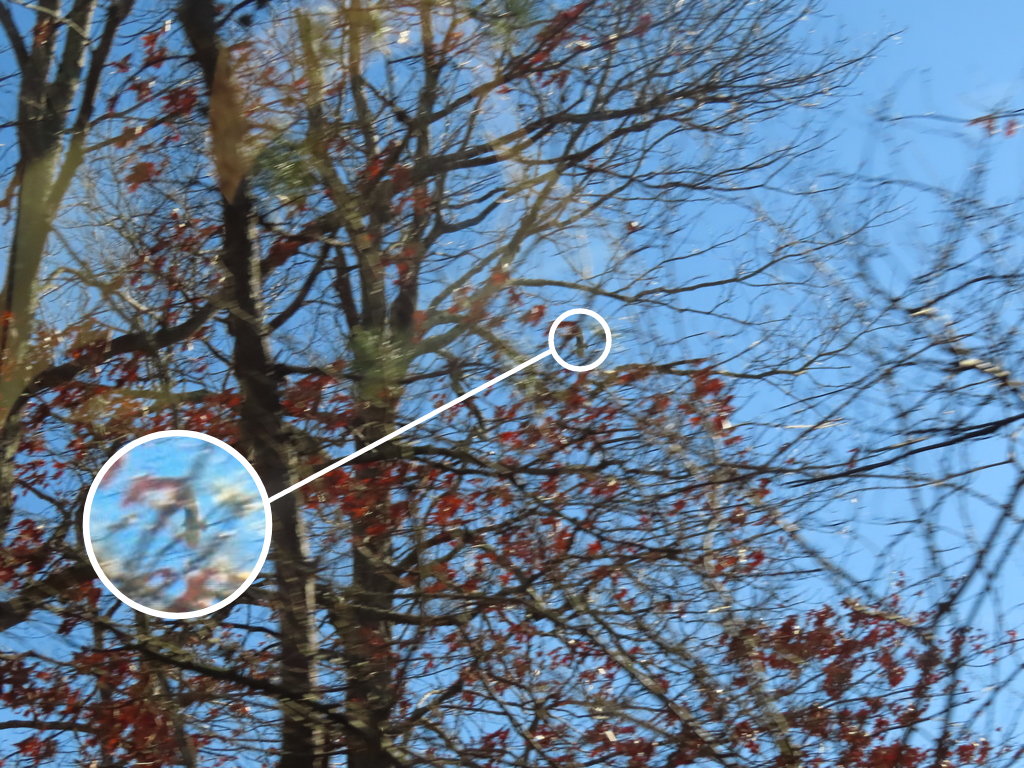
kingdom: Animalia
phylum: Chordata
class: Aves
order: Accipitriformes
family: Cathartidae
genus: Cathartes
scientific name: Cathartes aura
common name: Turkey vulture
